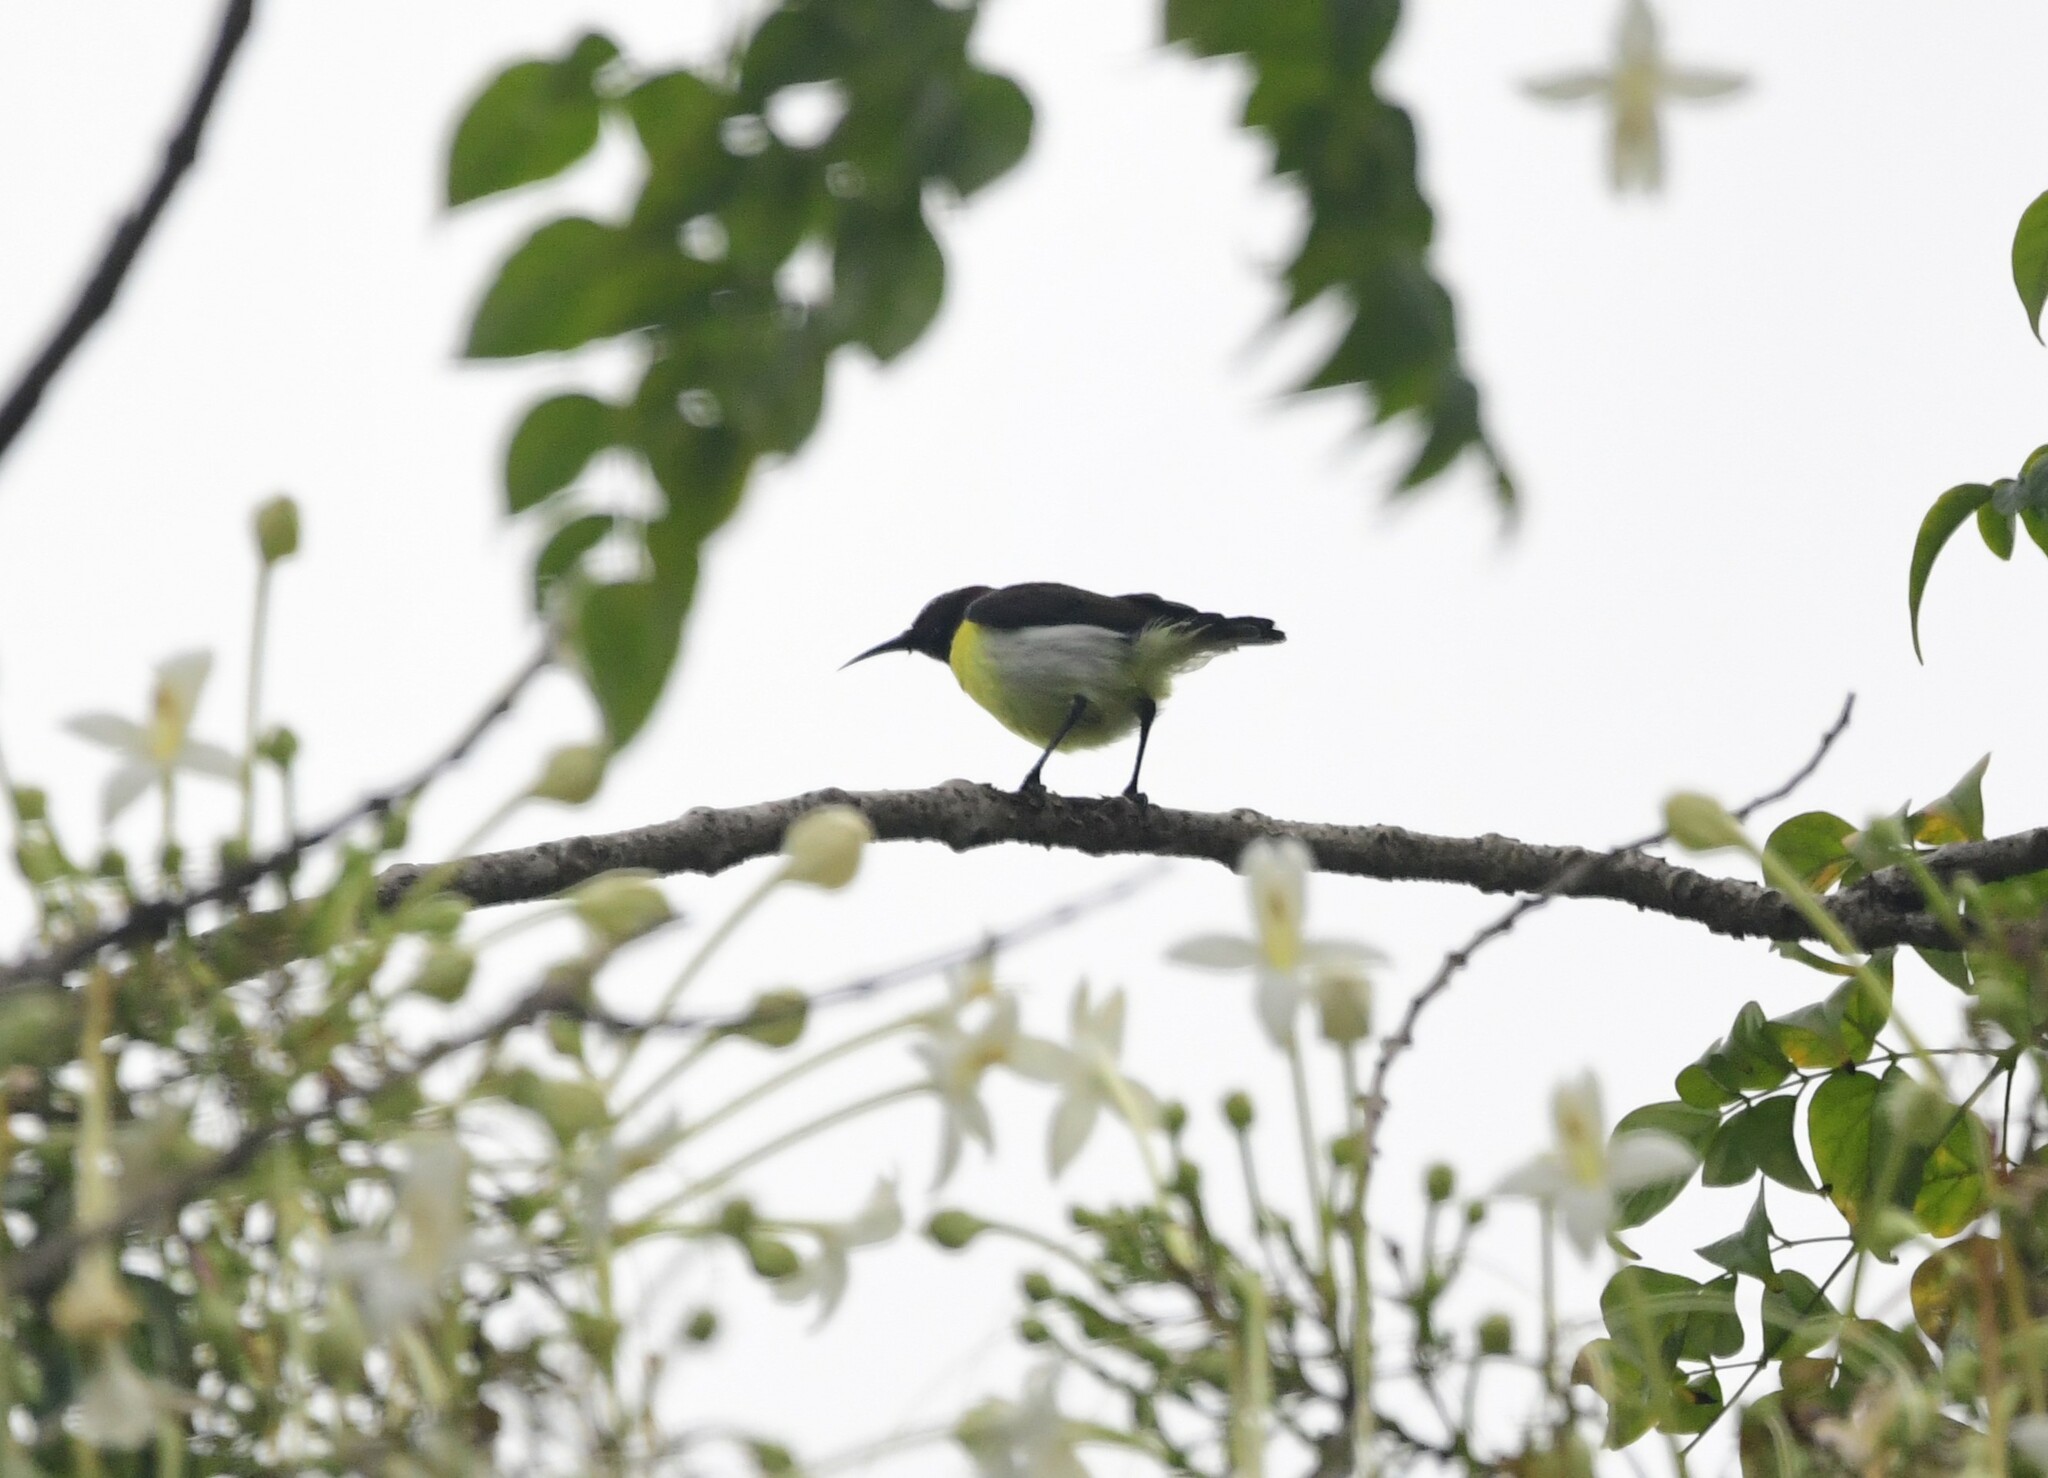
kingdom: Animalia
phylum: Chordata
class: Aves
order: Passeriformes
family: Nectariniidae
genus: Leptocoma
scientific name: Leptocoma zeylonica
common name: Purple-rumped sunbird
